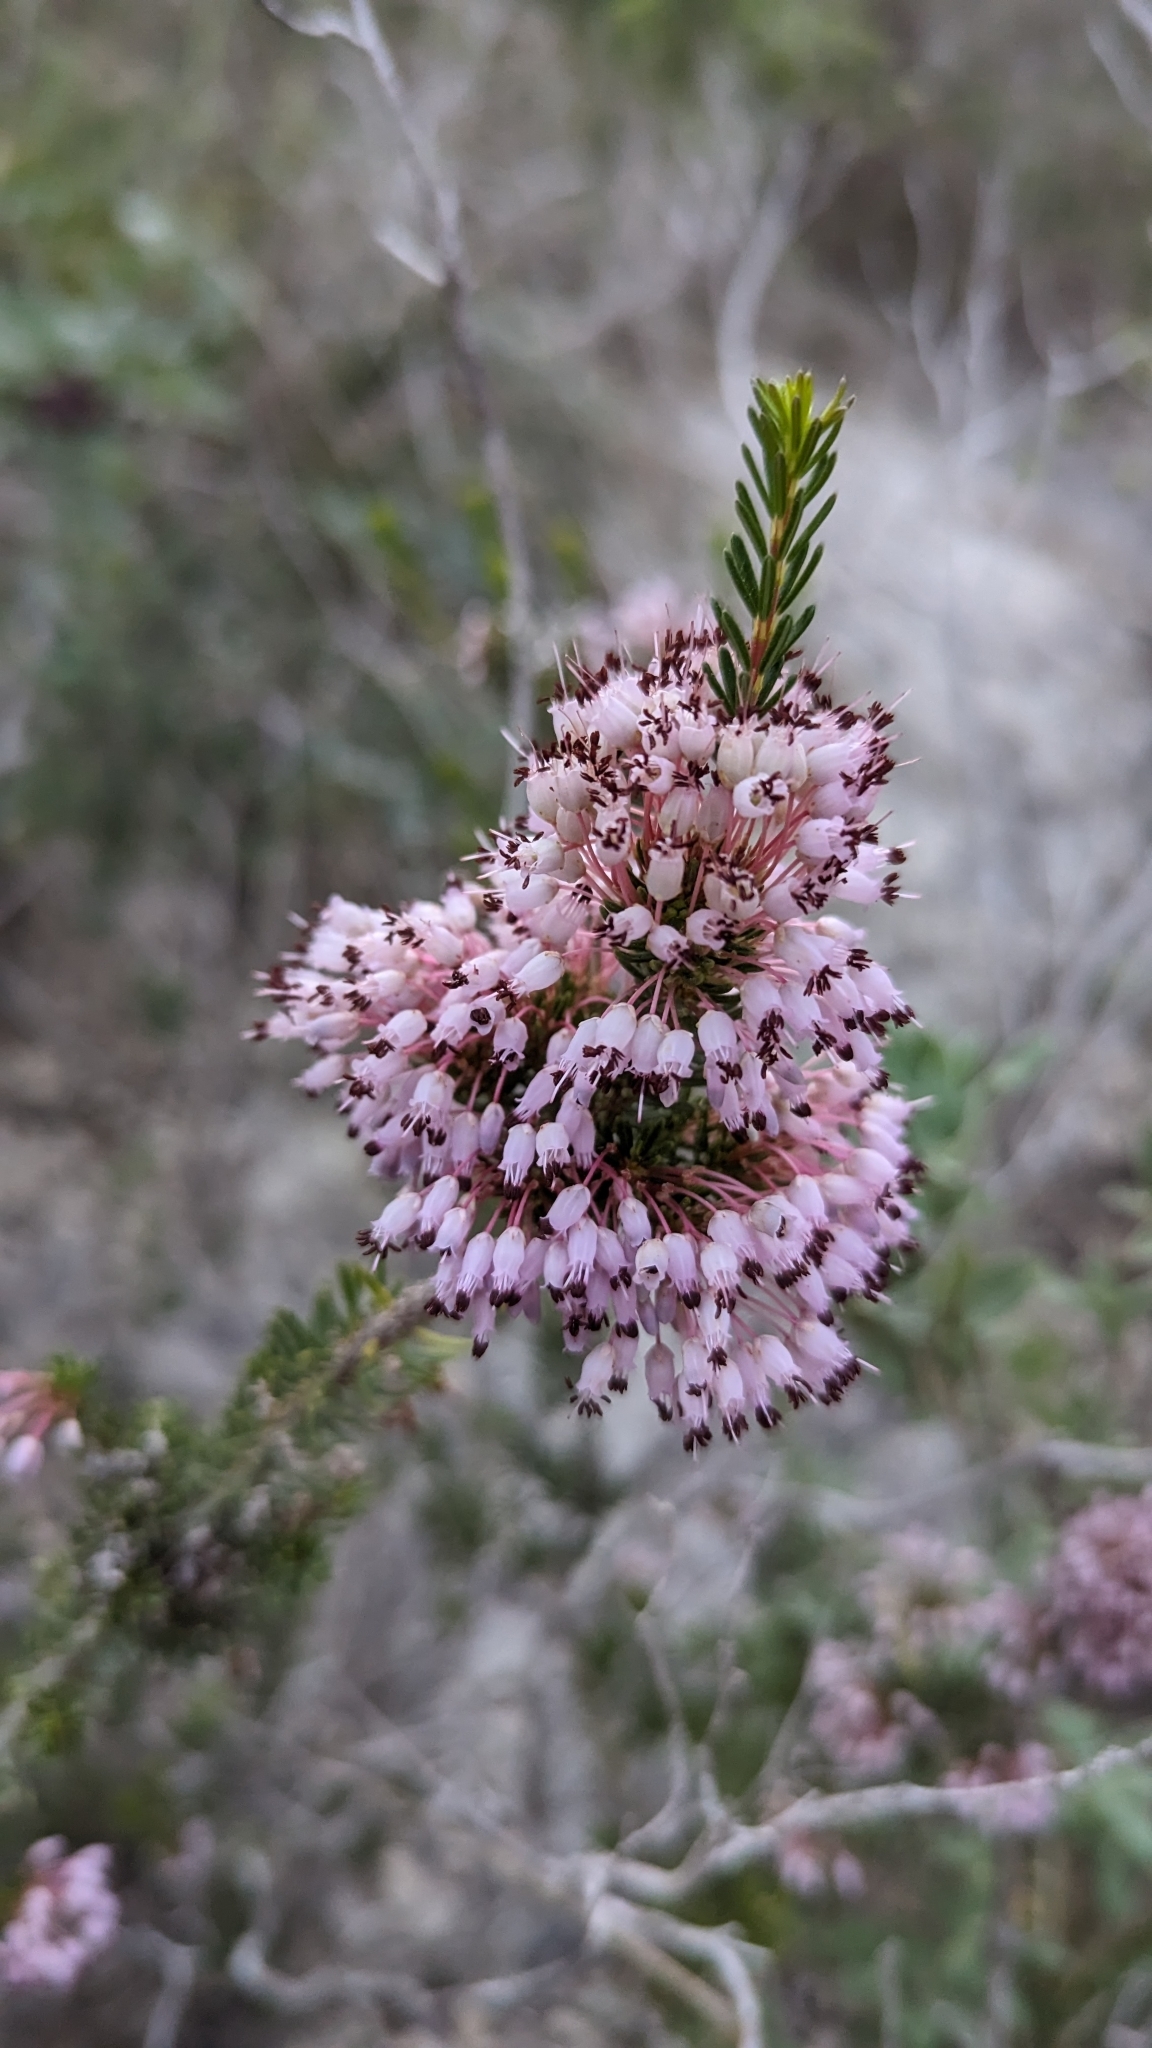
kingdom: Plantae
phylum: Tracheophyta
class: Magnoliopsida
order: Ericales
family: Ericaceae
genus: Erica
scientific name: Erica multiflora
